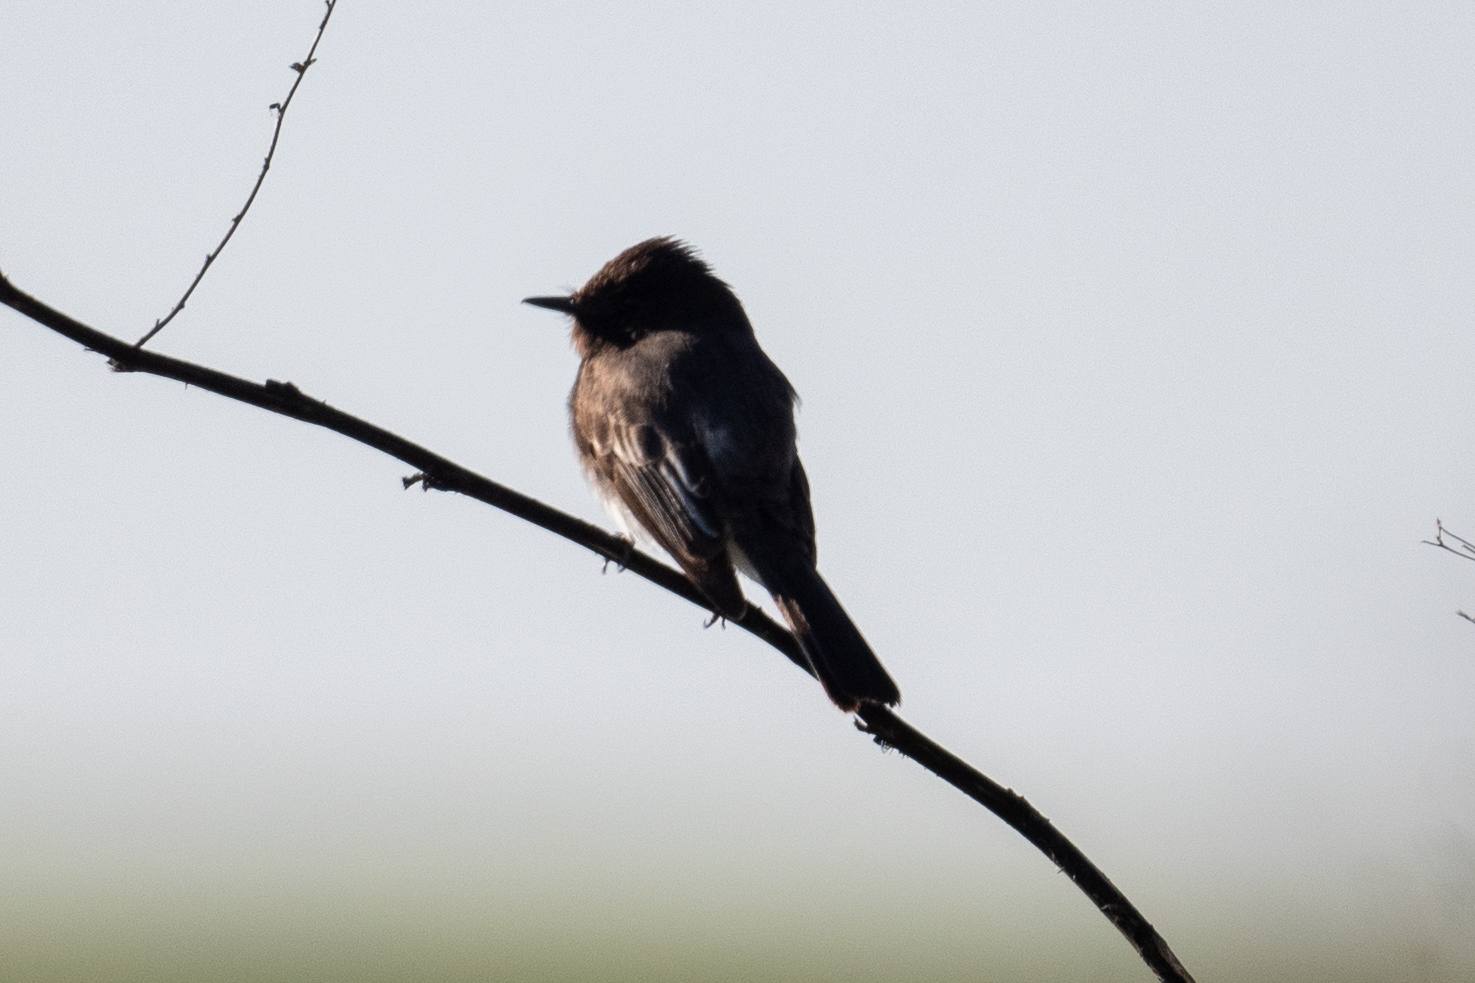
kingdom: Animalia
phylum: Chordata
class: Aves
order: Passeriformes
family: Tyrannidae
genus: Sayornis
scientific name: Sayornis nigricans
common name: Black phoebe
